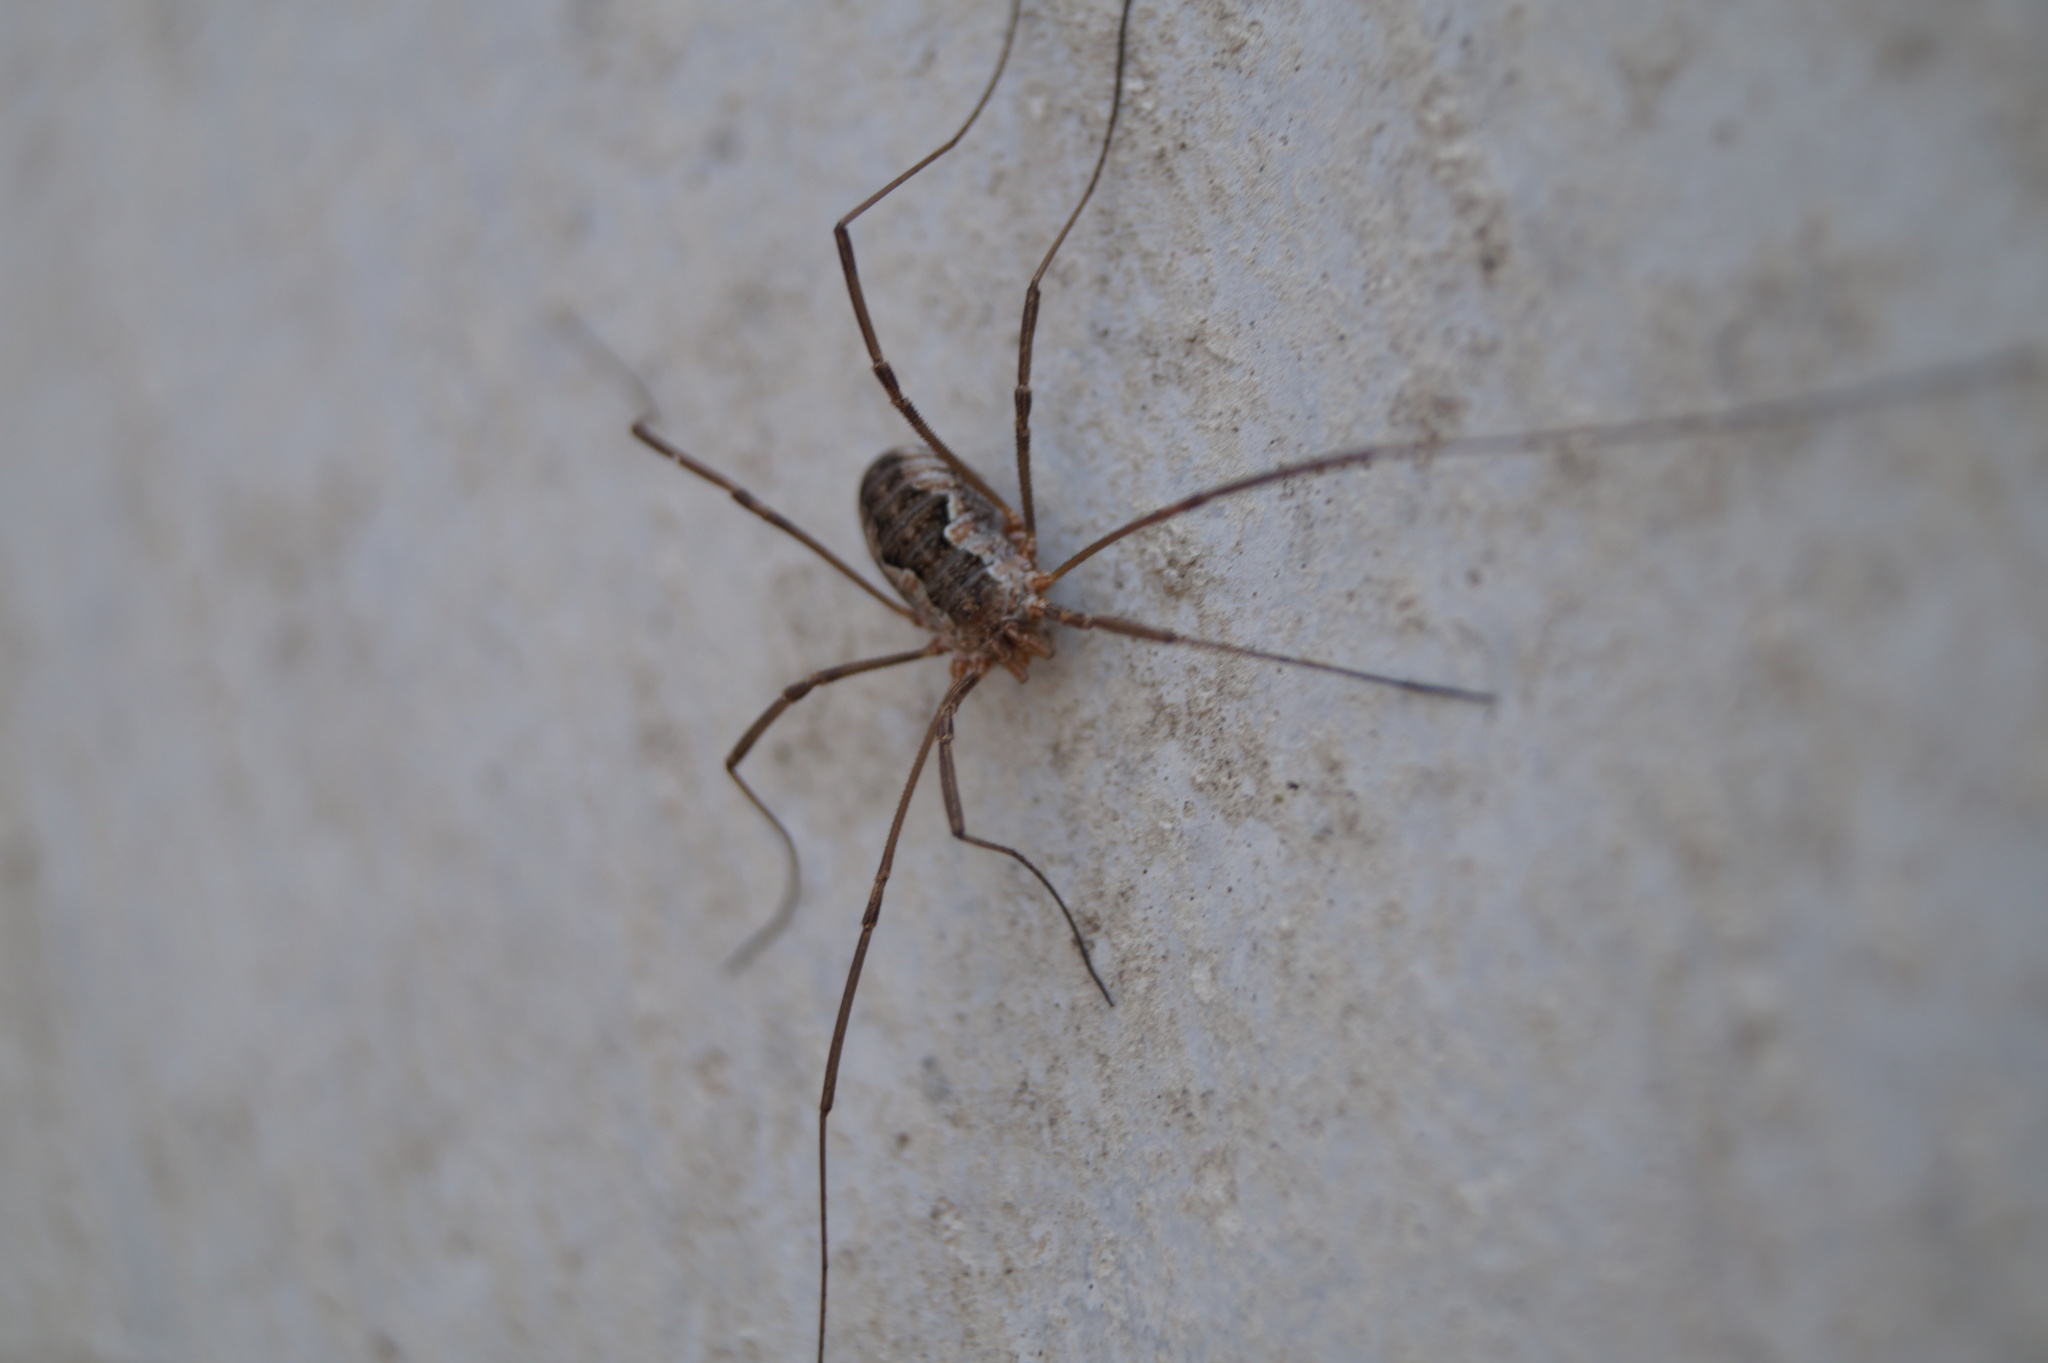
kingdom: Animalia
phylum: Arthropoda
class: Arachnida
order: Opiliones
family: Phalangiidae
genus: Phalangium
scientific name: Phalangium opilio
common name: Daddy longleg
